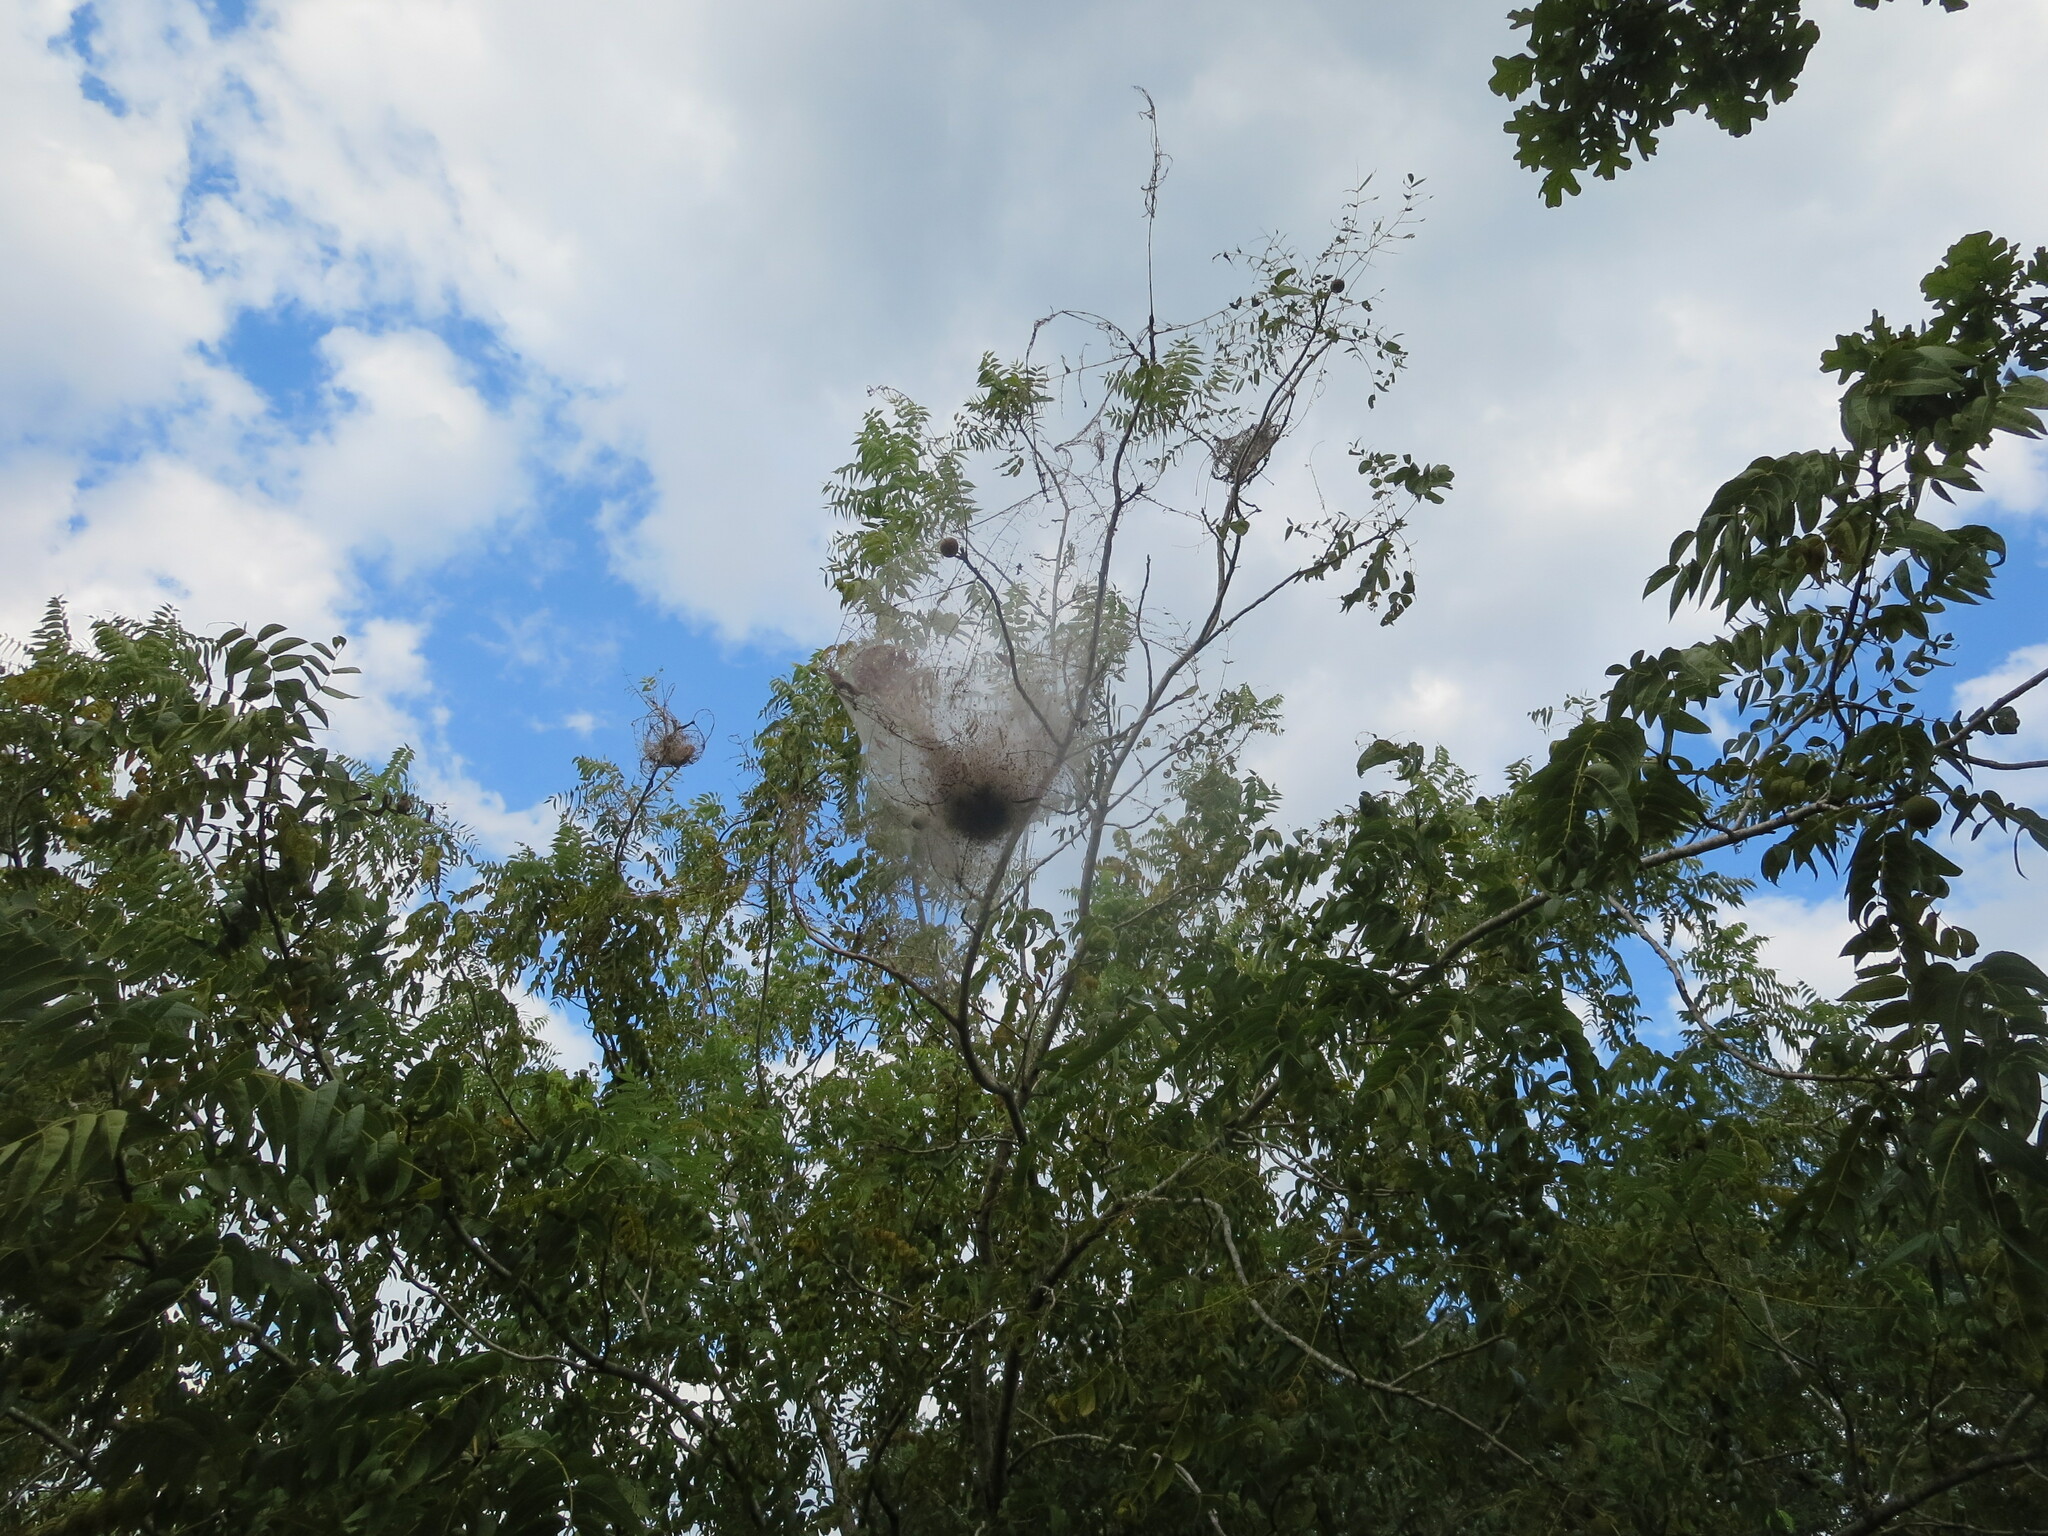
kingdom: Animalia
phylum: Arthropoda
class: Insecta
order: Lepidoptera
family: Erebidae
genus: Hyphantria
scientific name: Hyphantria cunea
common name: American white moth
